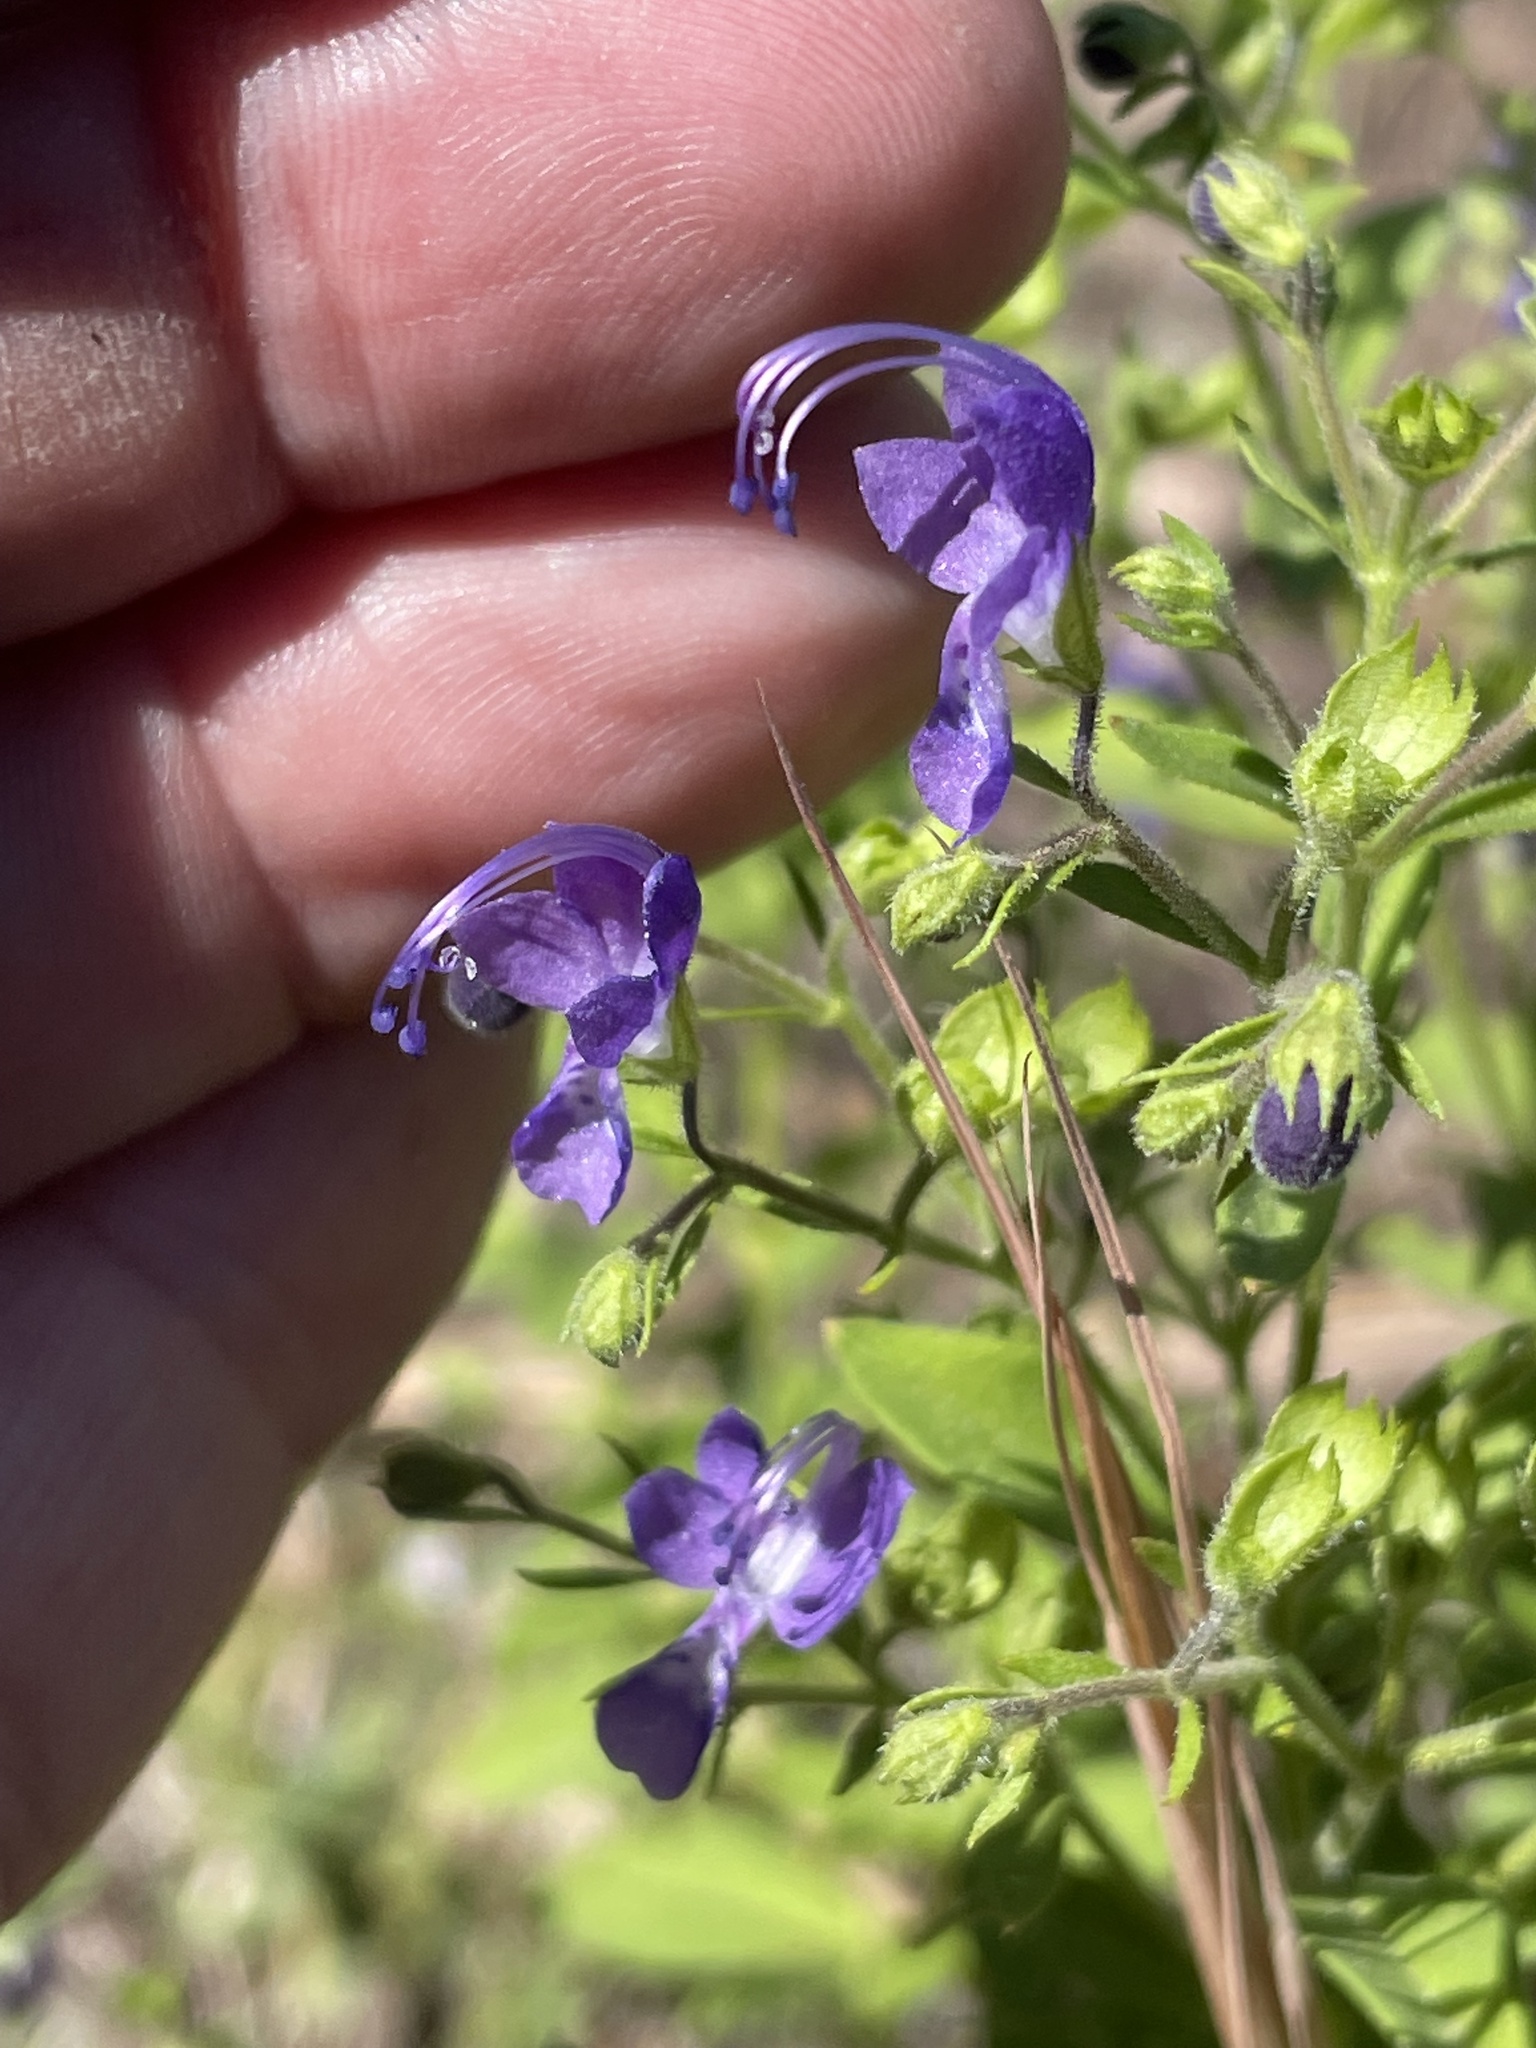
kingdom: Plantae
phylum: Tracheophyta
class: Magnoliopsida
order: Lamiales
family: Lamiaceae
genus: Trichostema
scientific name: Trichostema dichotomum
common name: Bastard pennyroyal
